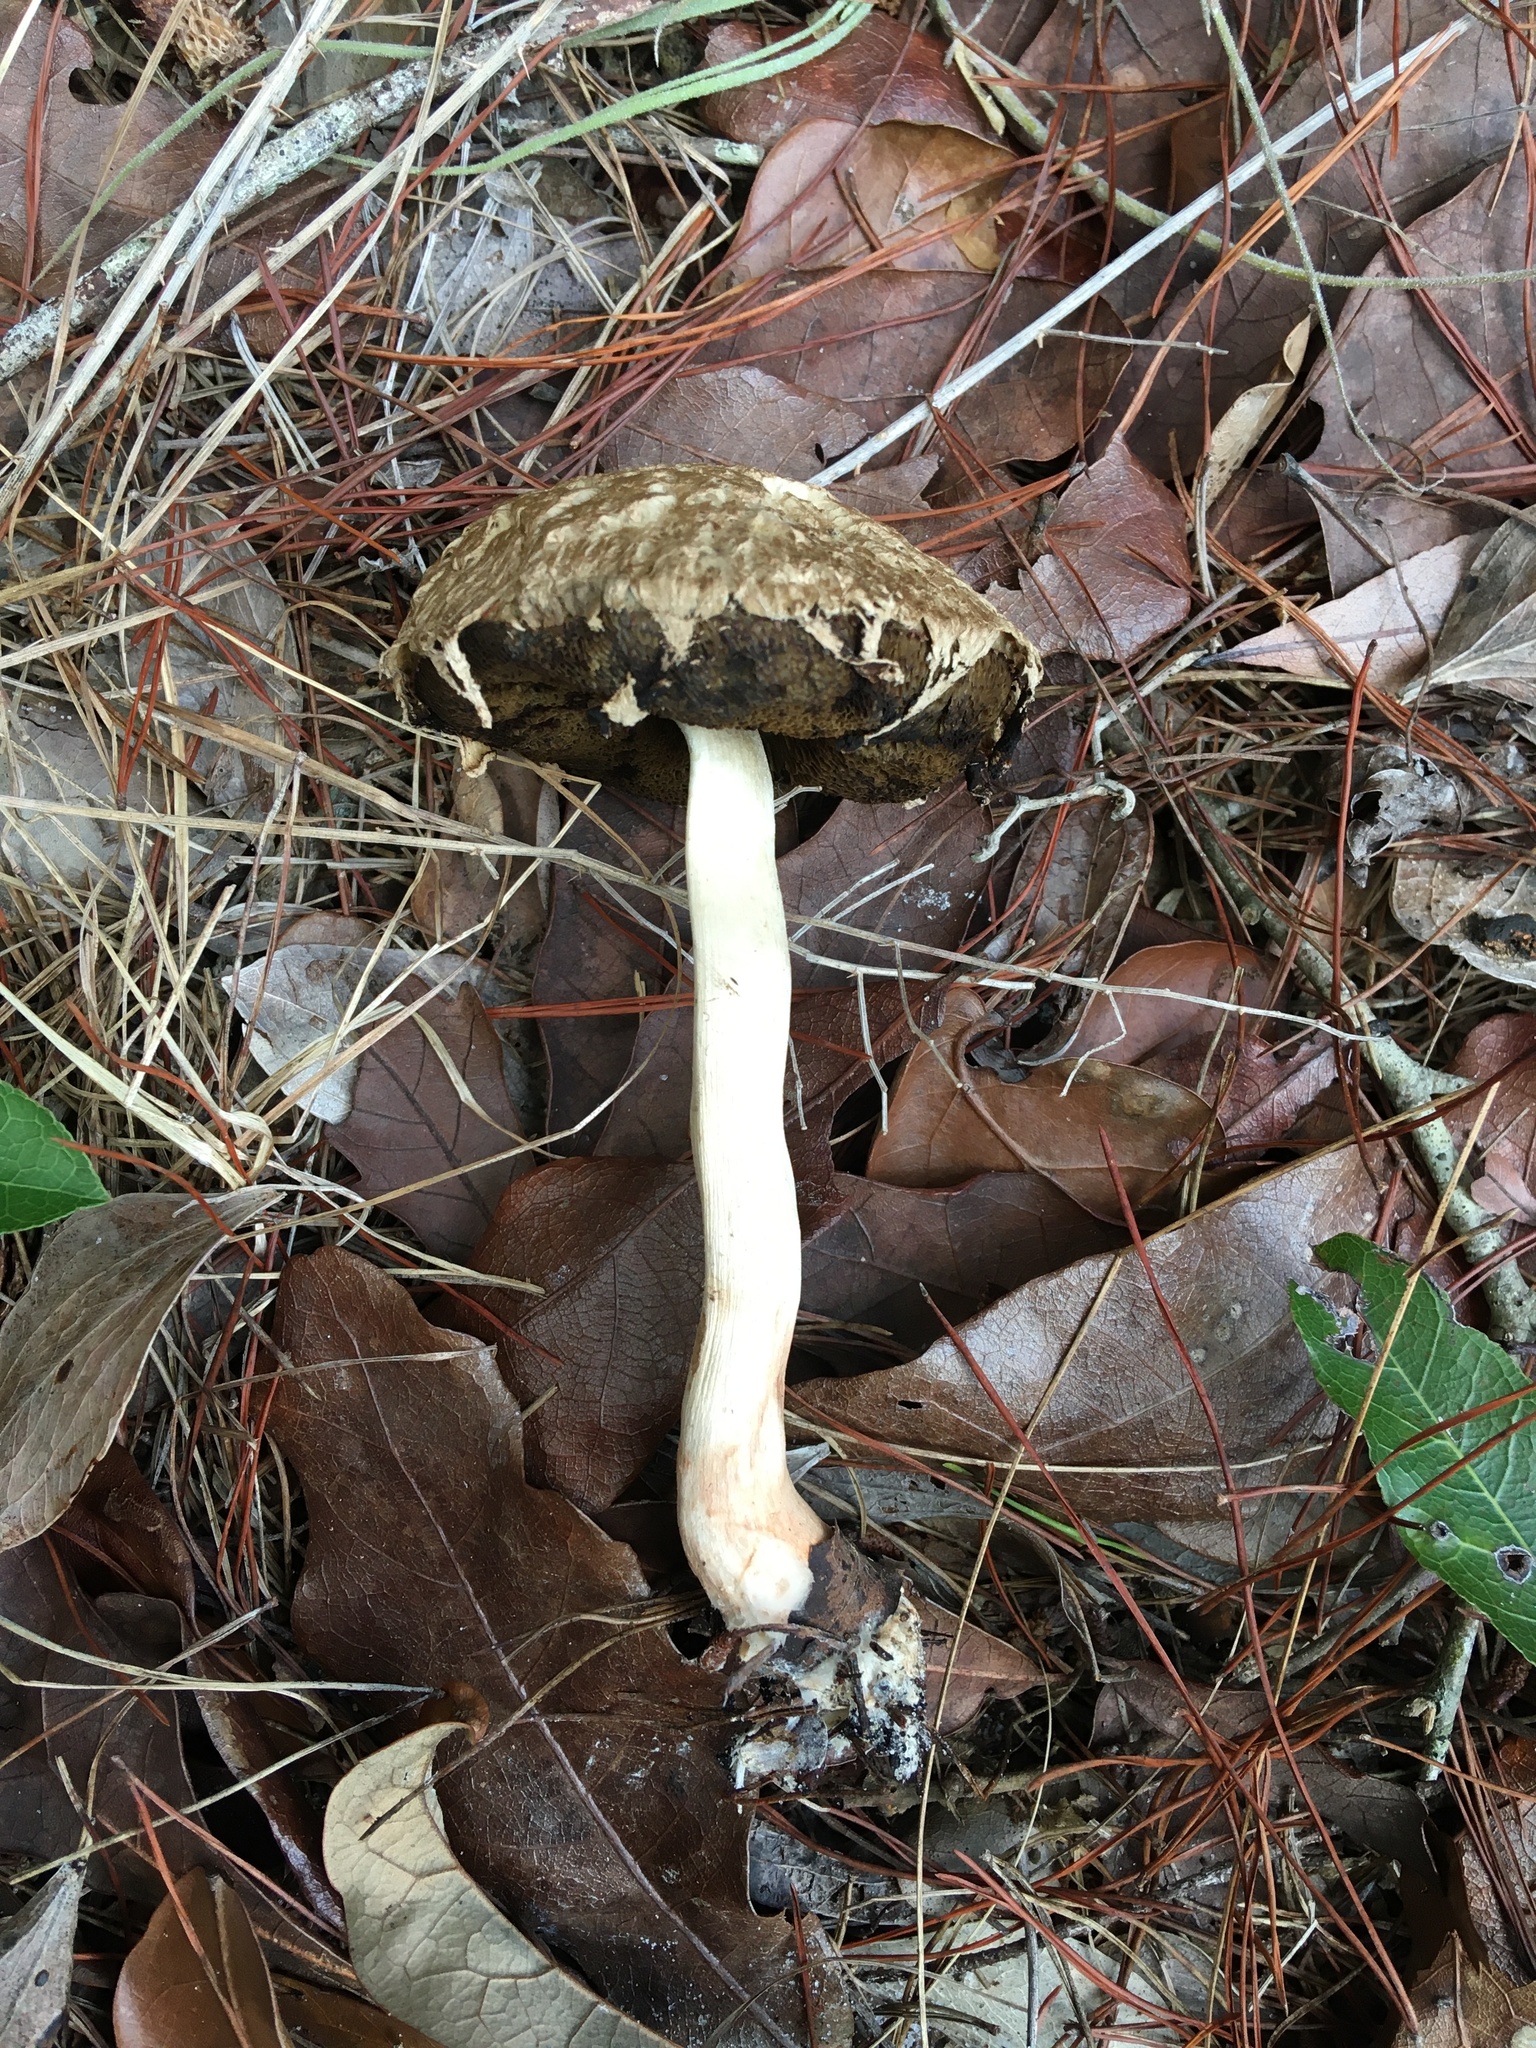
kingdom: Fungi
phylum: Basidiomycota
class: Agaricomycetes
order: Boletales
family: Boletaceae
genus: Boletellus
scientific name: Boletellus ananas
